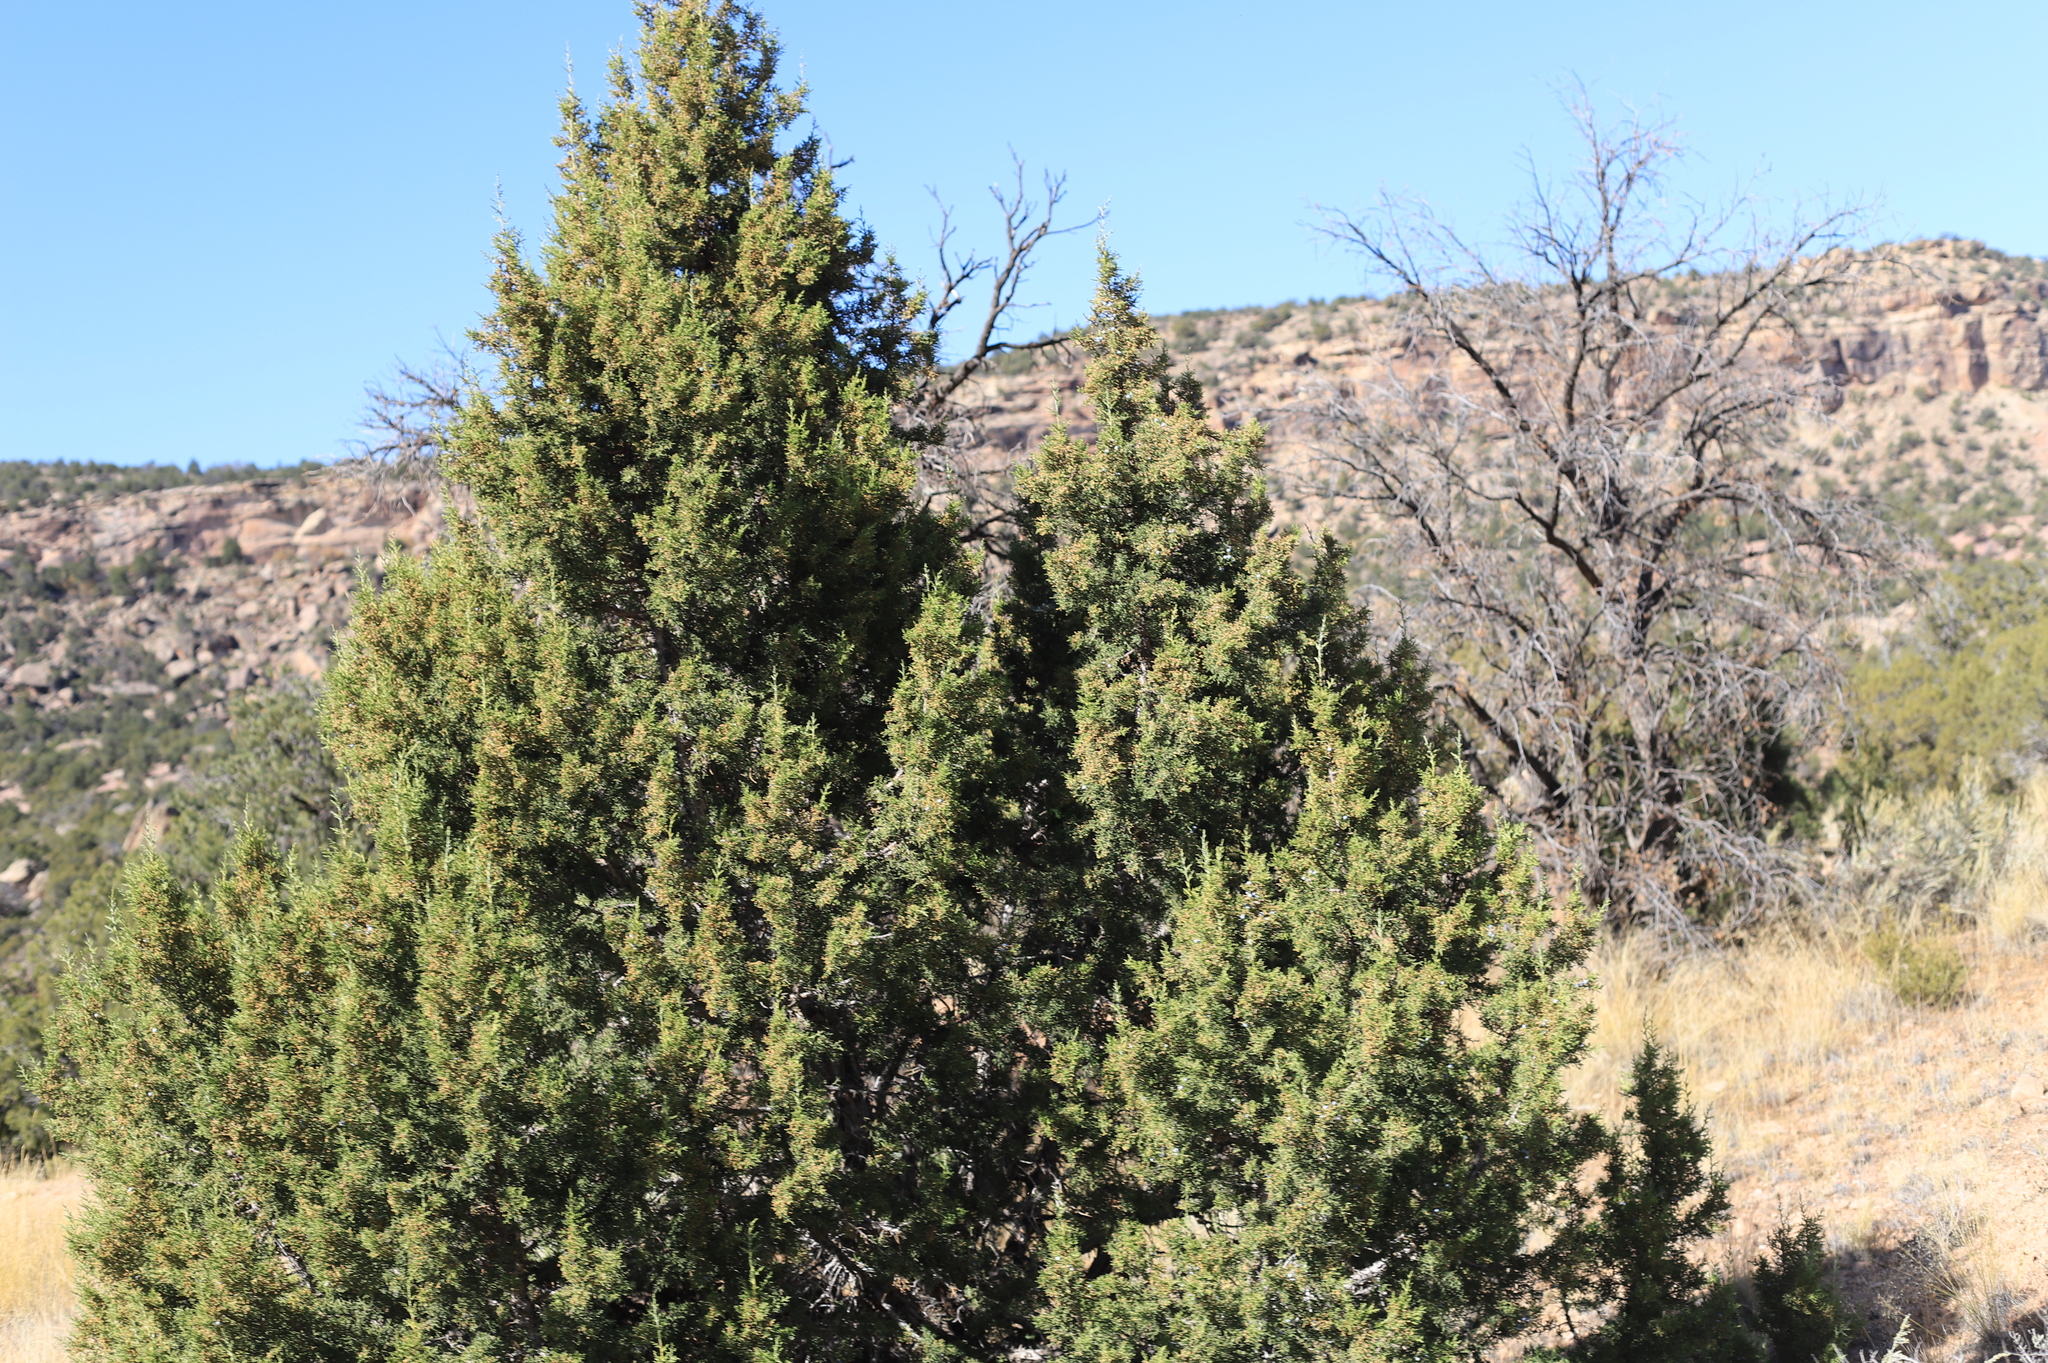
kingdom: Plantae
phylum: Tracheophyta
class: Pinopsida
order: Pinales
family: Cupressaceae
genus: Juniperus
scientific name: Juniperus osteosperma
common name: Utah juniper
